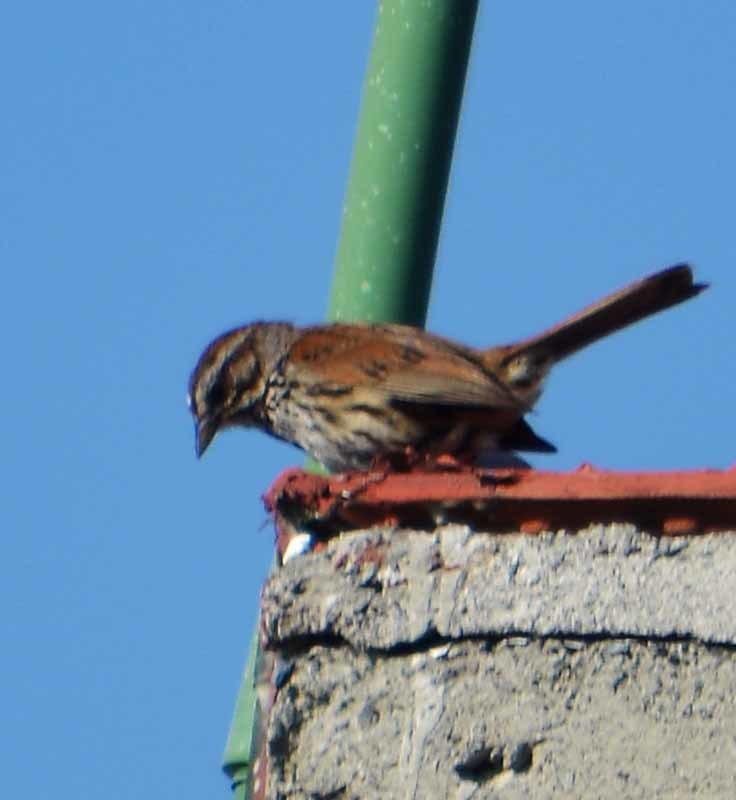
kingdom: Animalia
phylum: Chordata
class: Aves
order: Passeriformes
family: Passerellidae
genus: Melospiza
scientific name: Melospiza melodia
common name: Song sparrow
